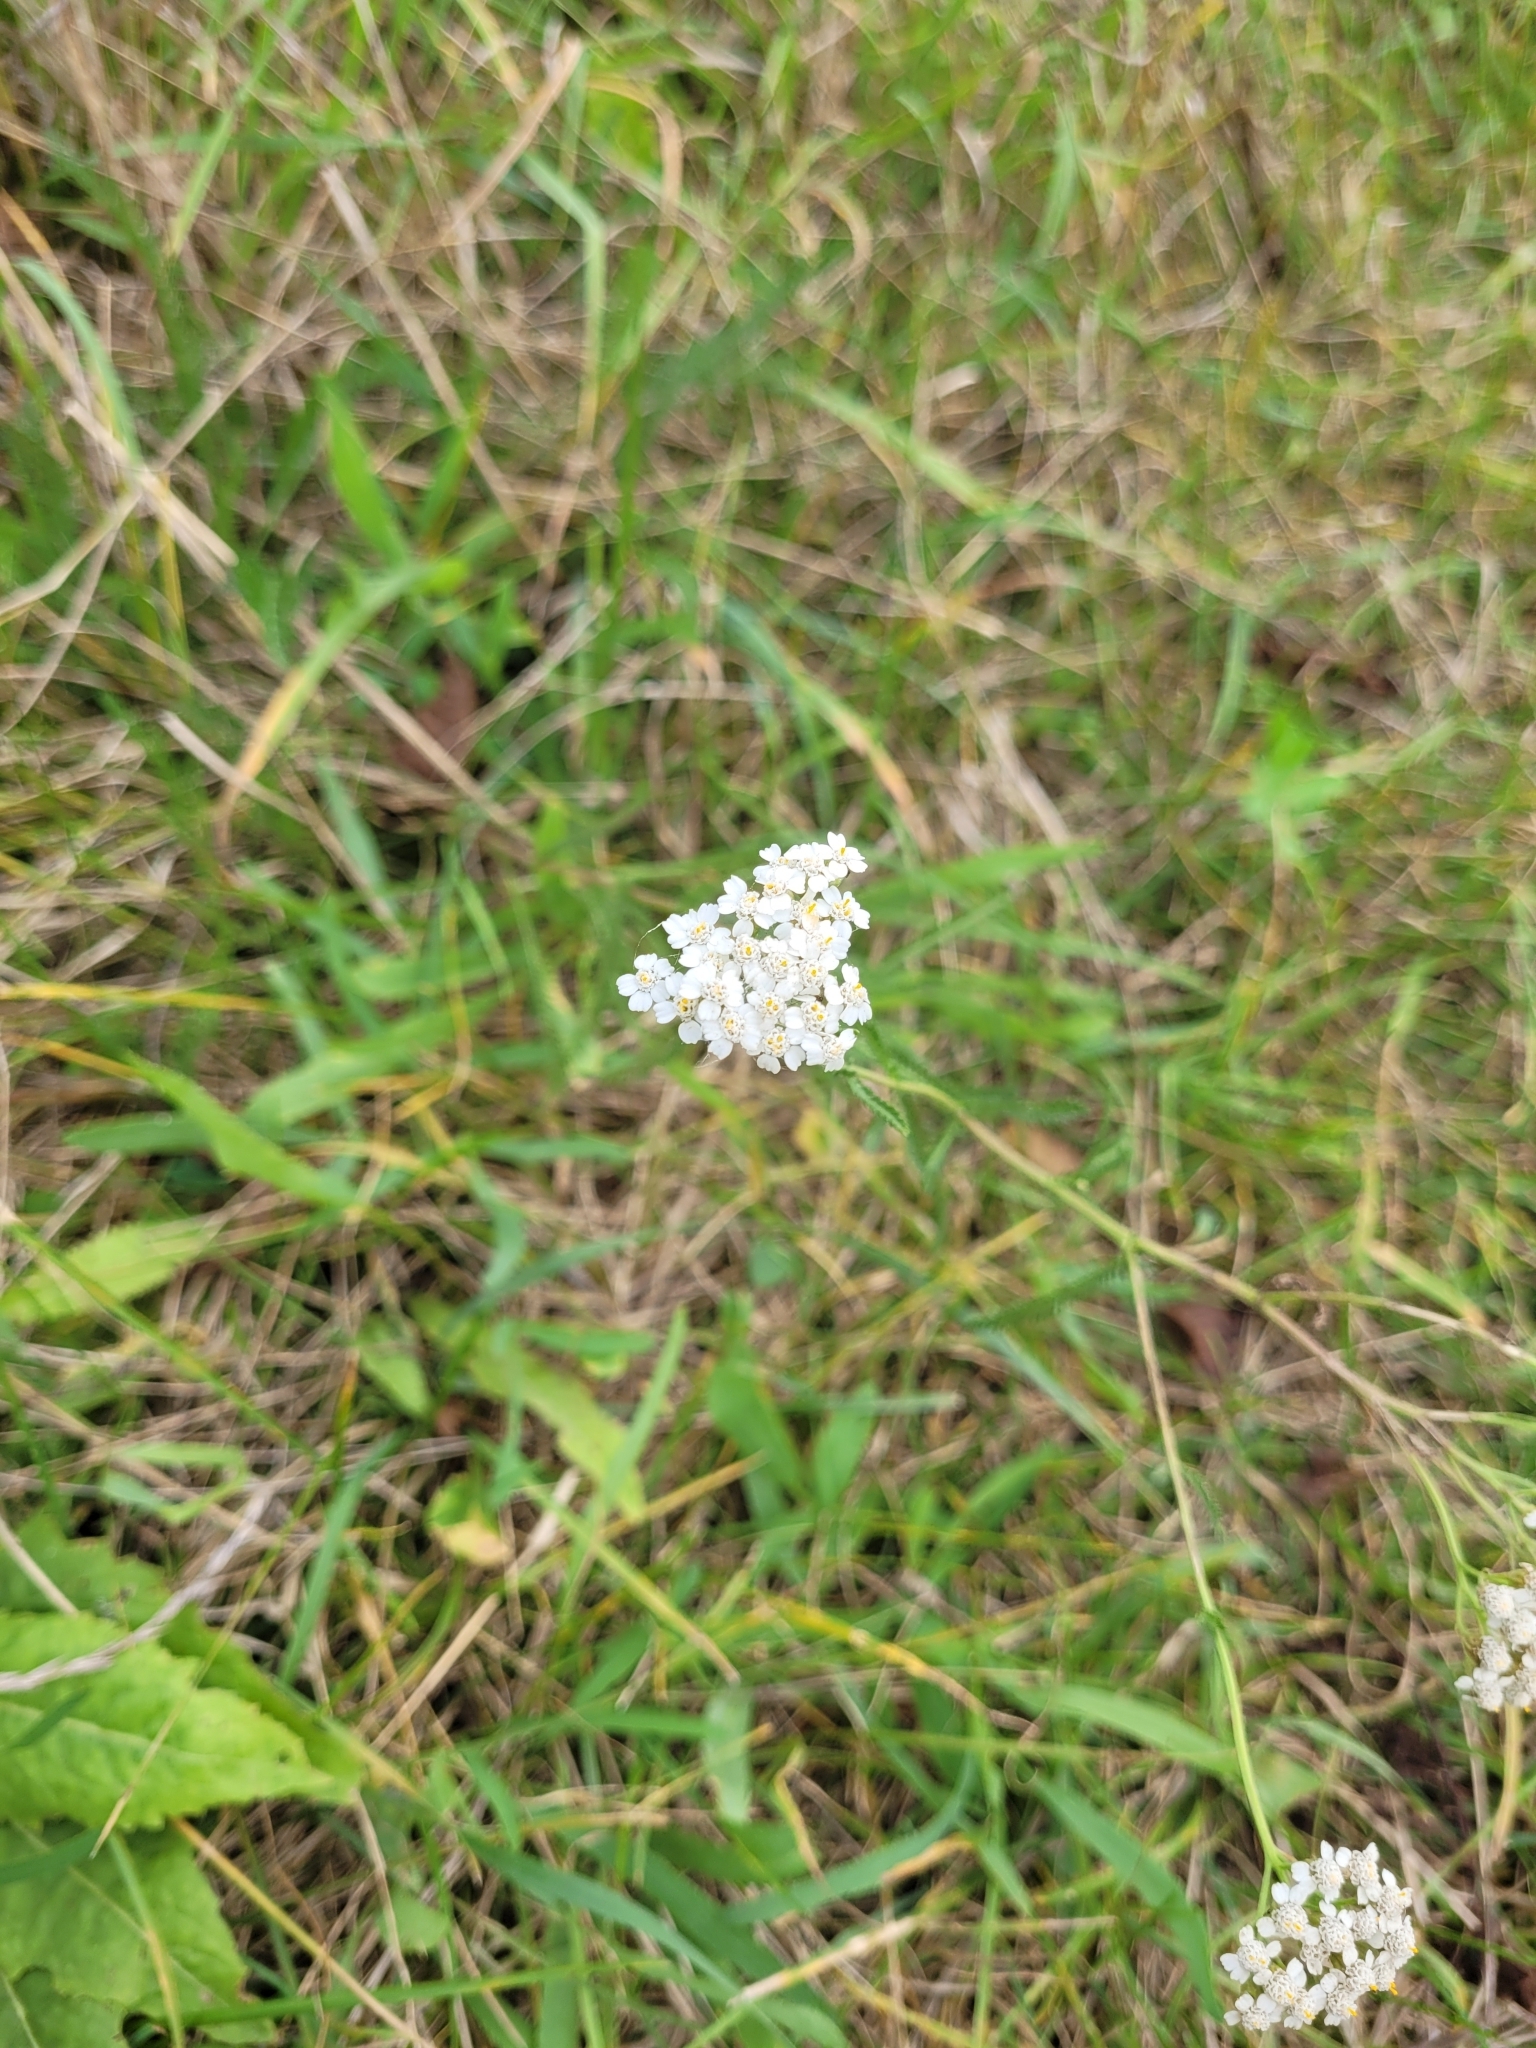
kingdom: Plantae
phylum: Tracheophyta
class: Magnoliopsida
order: Asterales
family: Asteraceae
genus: Achillea
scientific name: Achillea millefolium
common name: Yarrow
